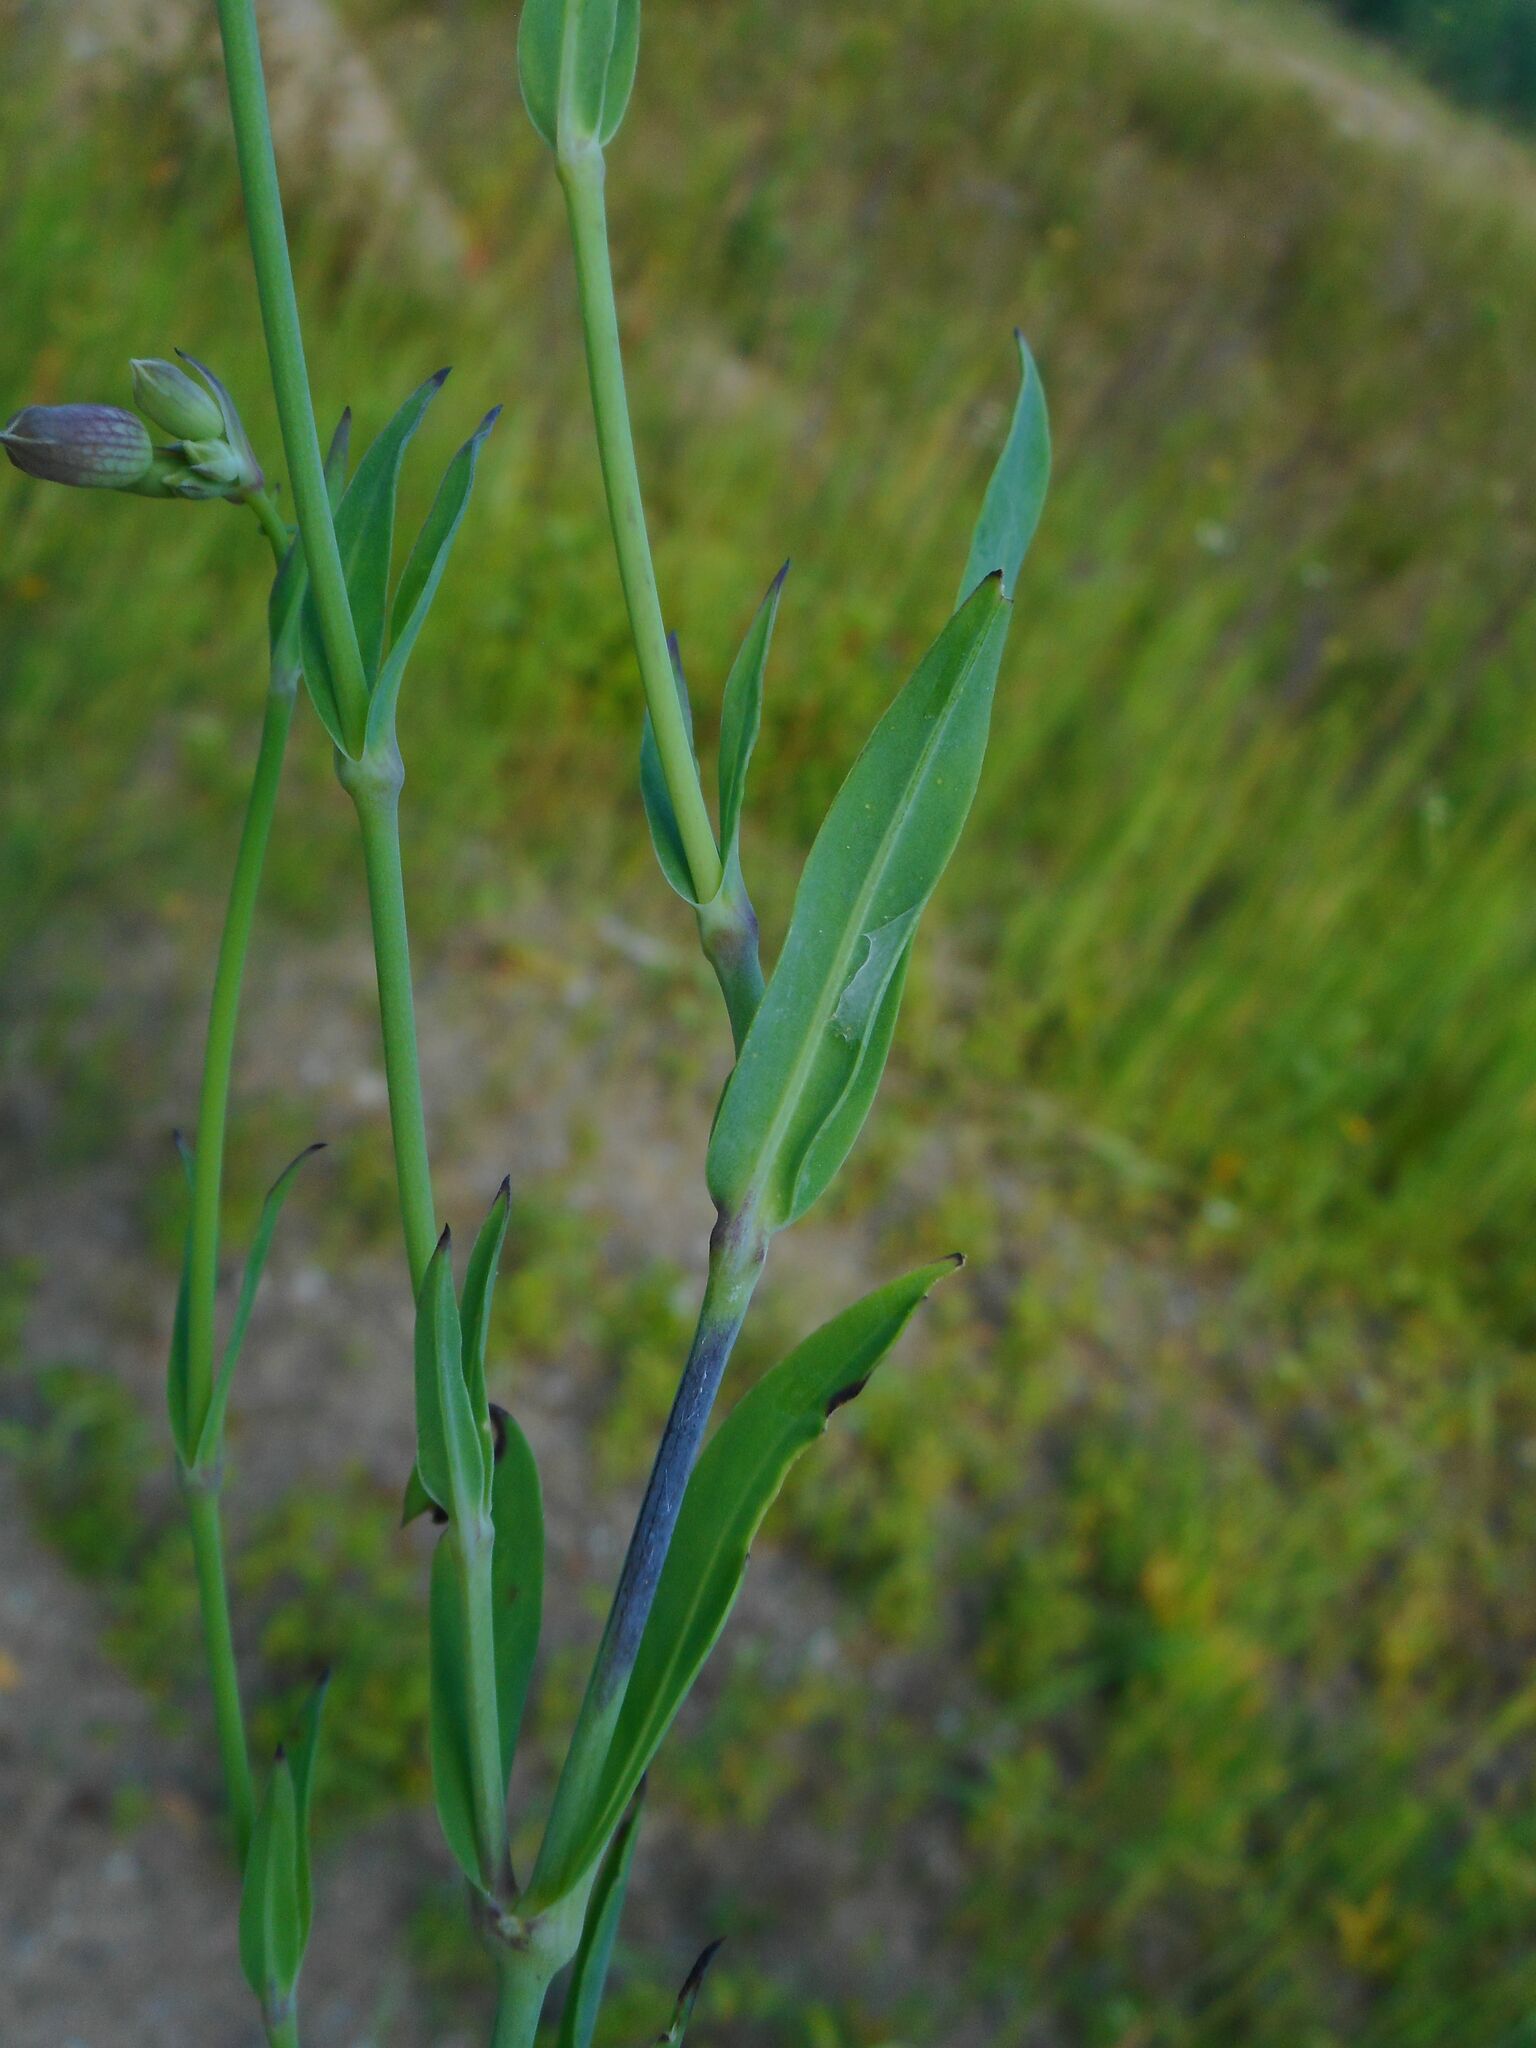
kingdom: Plantae
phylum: Tracheophyta
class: Magnoliopsida
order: Caryophyllales
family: Caryophyllaceae
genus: Silene
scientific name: Silene vulgaris
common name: Bladder campion
